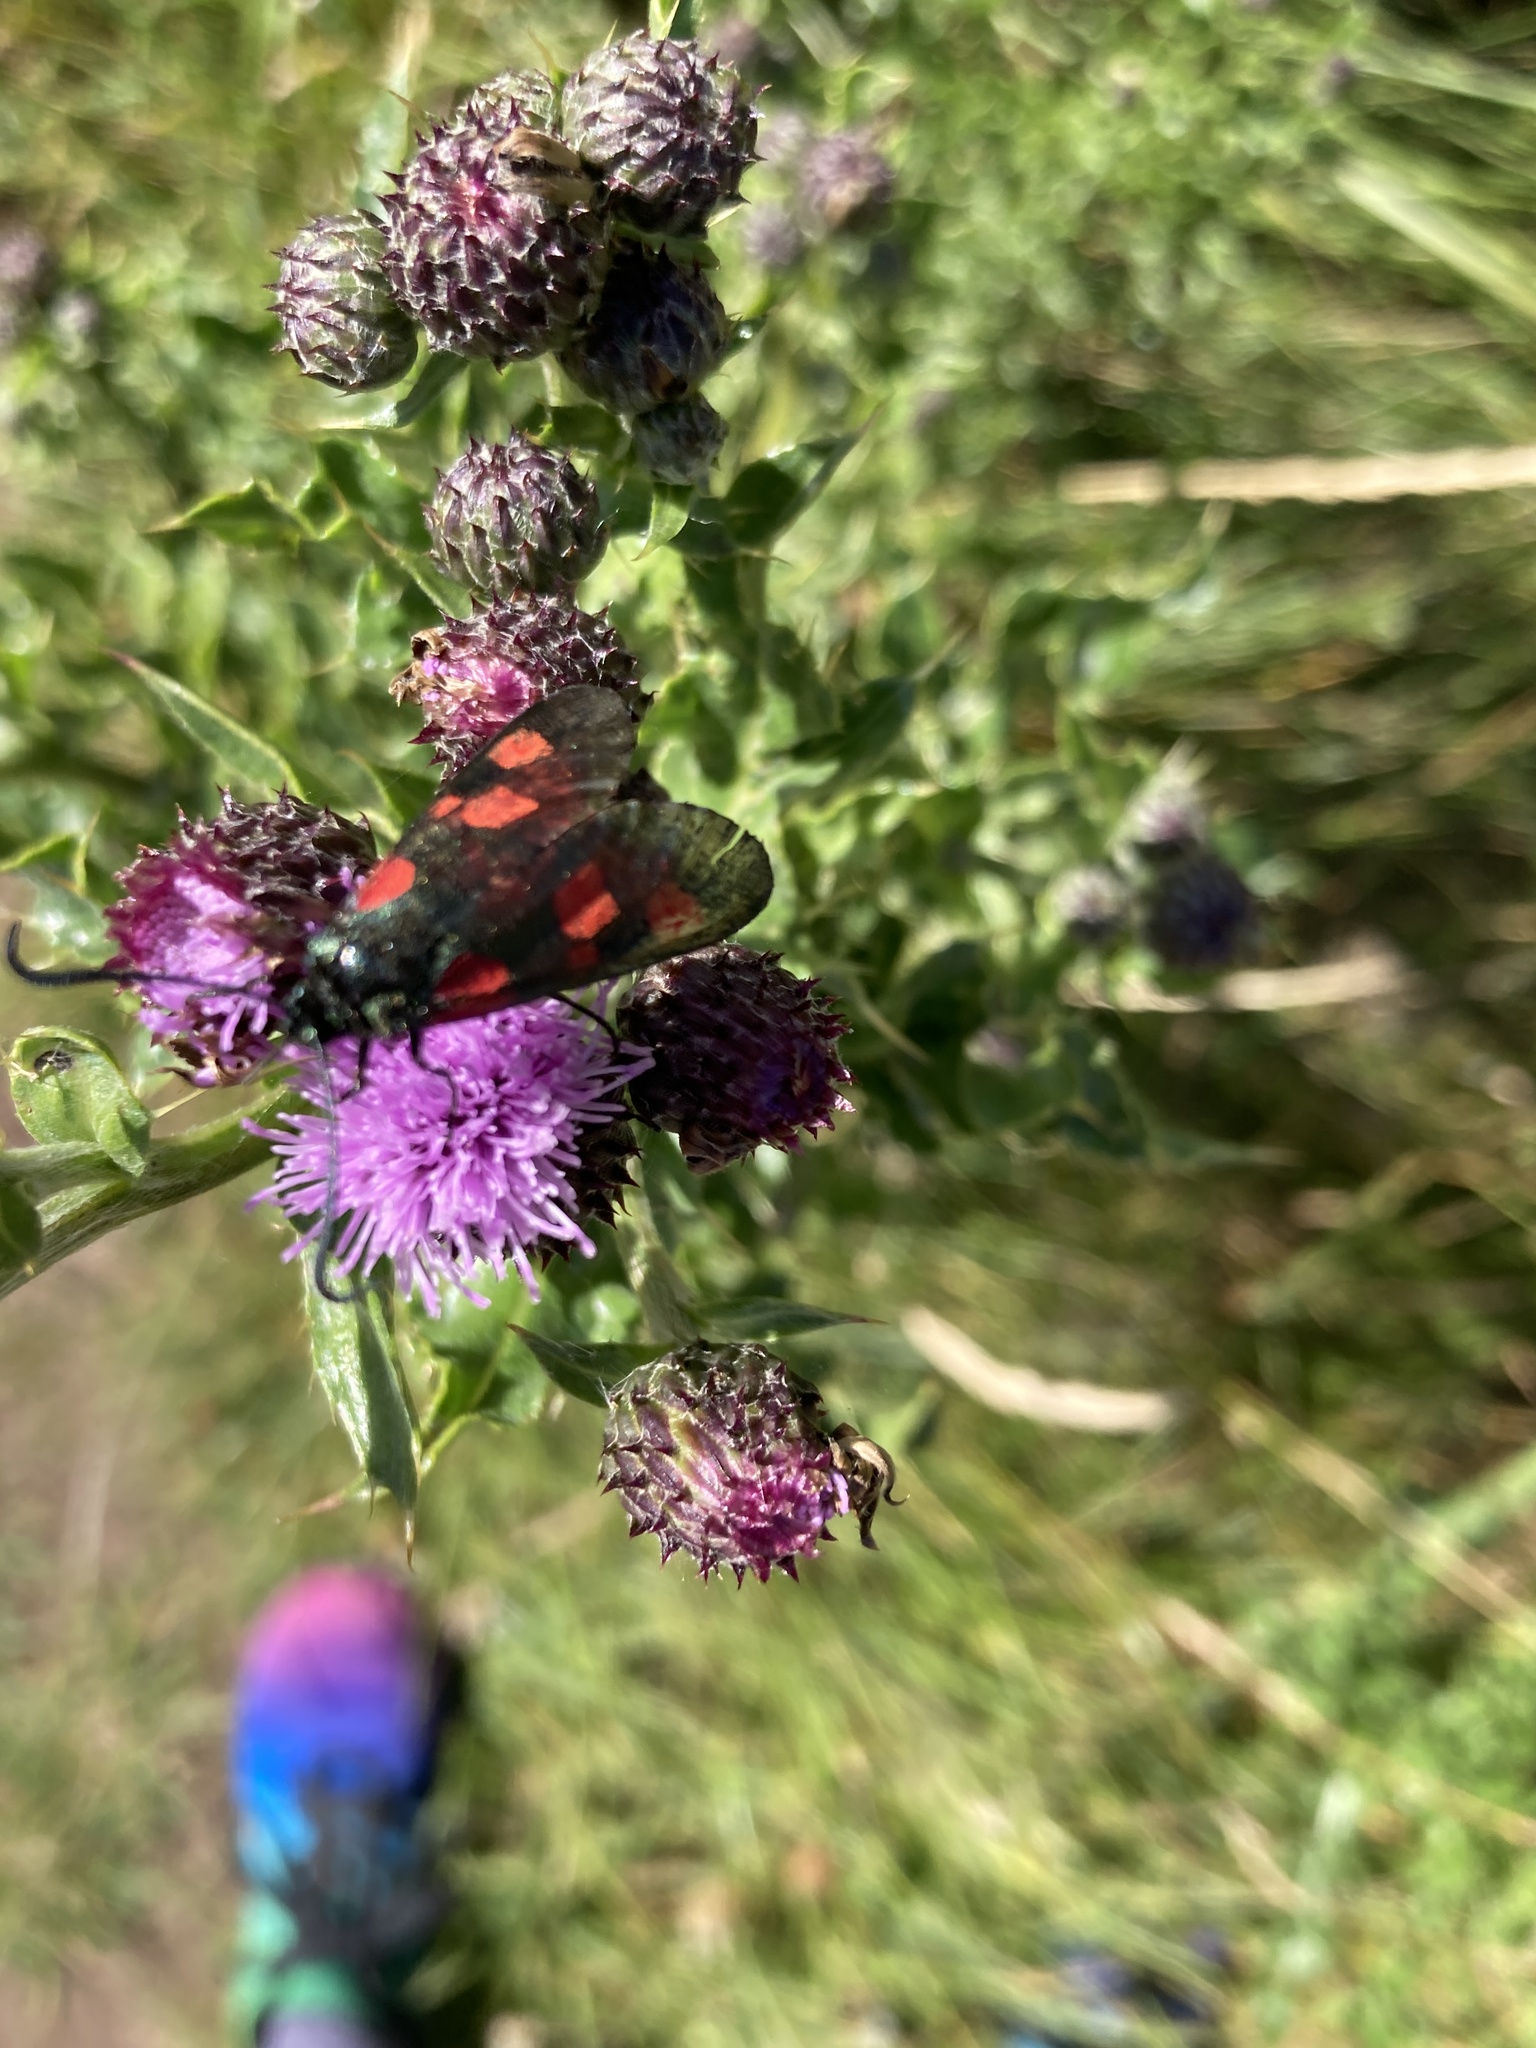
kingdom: Animalia
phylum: Arthropoda
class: Insecta
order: Lepidoptera
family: Zygaenidae
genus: Zygaena
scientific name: Zygaena lonicerae
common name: Narrow-bordered five-spot burnet
